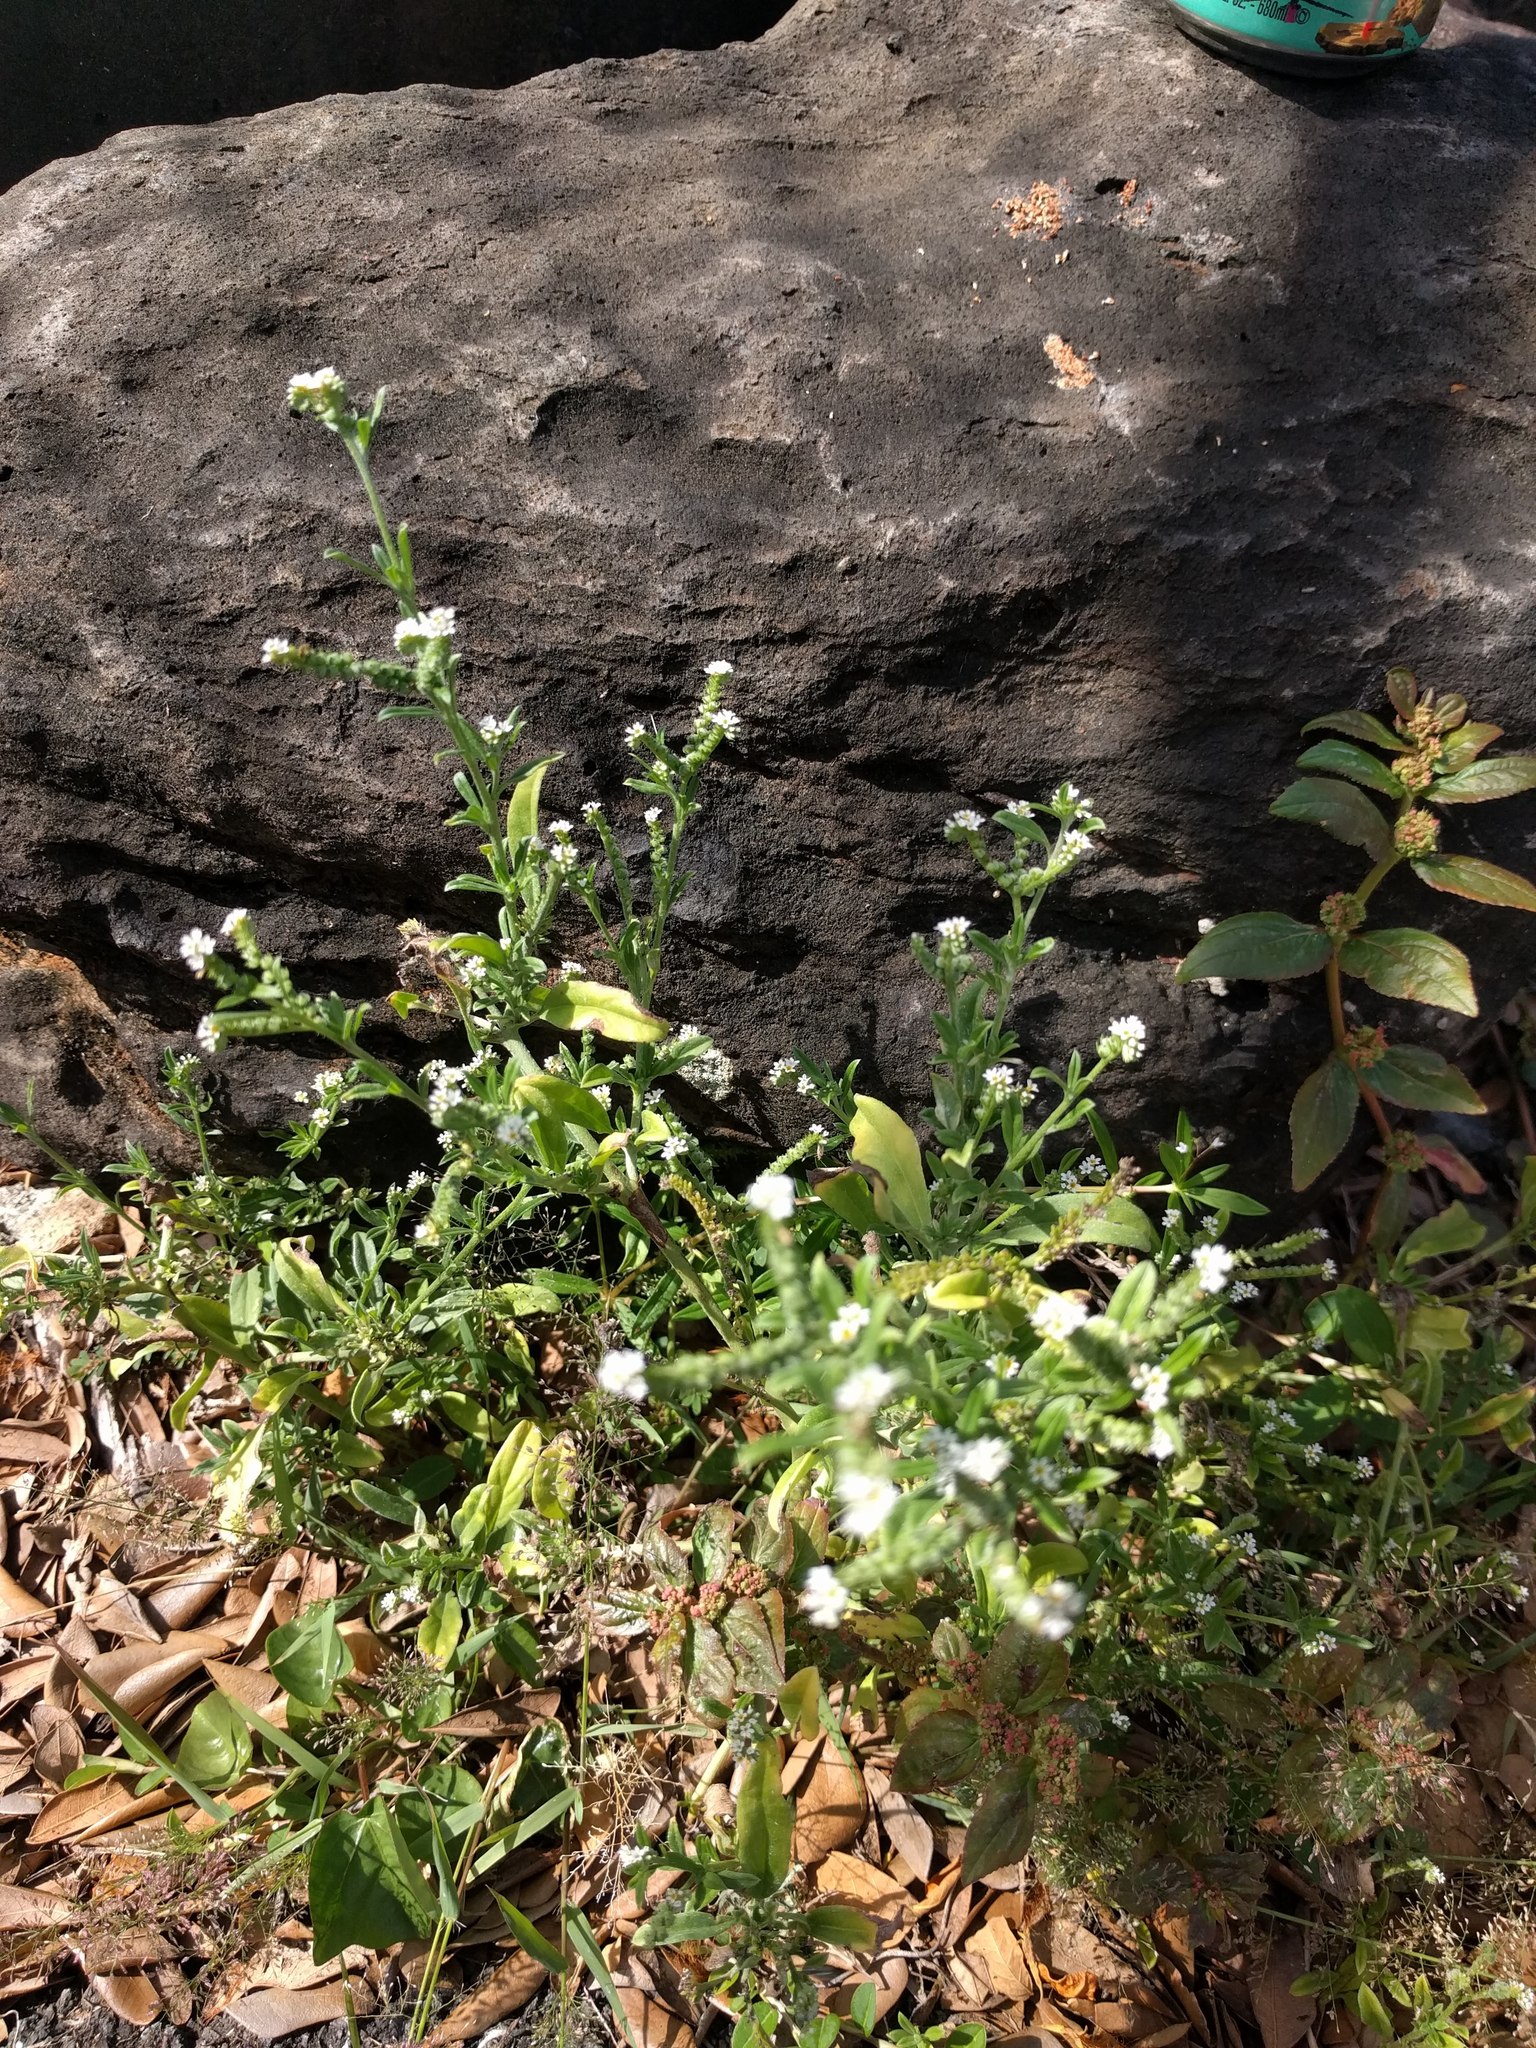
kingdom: Plantae
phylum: Tracheophyta
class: Magnoliopsida
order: Boraginales
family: Heliotropiaceae
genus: Euploca
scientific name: Euploca procumbens
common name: Fourspike heliotrope
